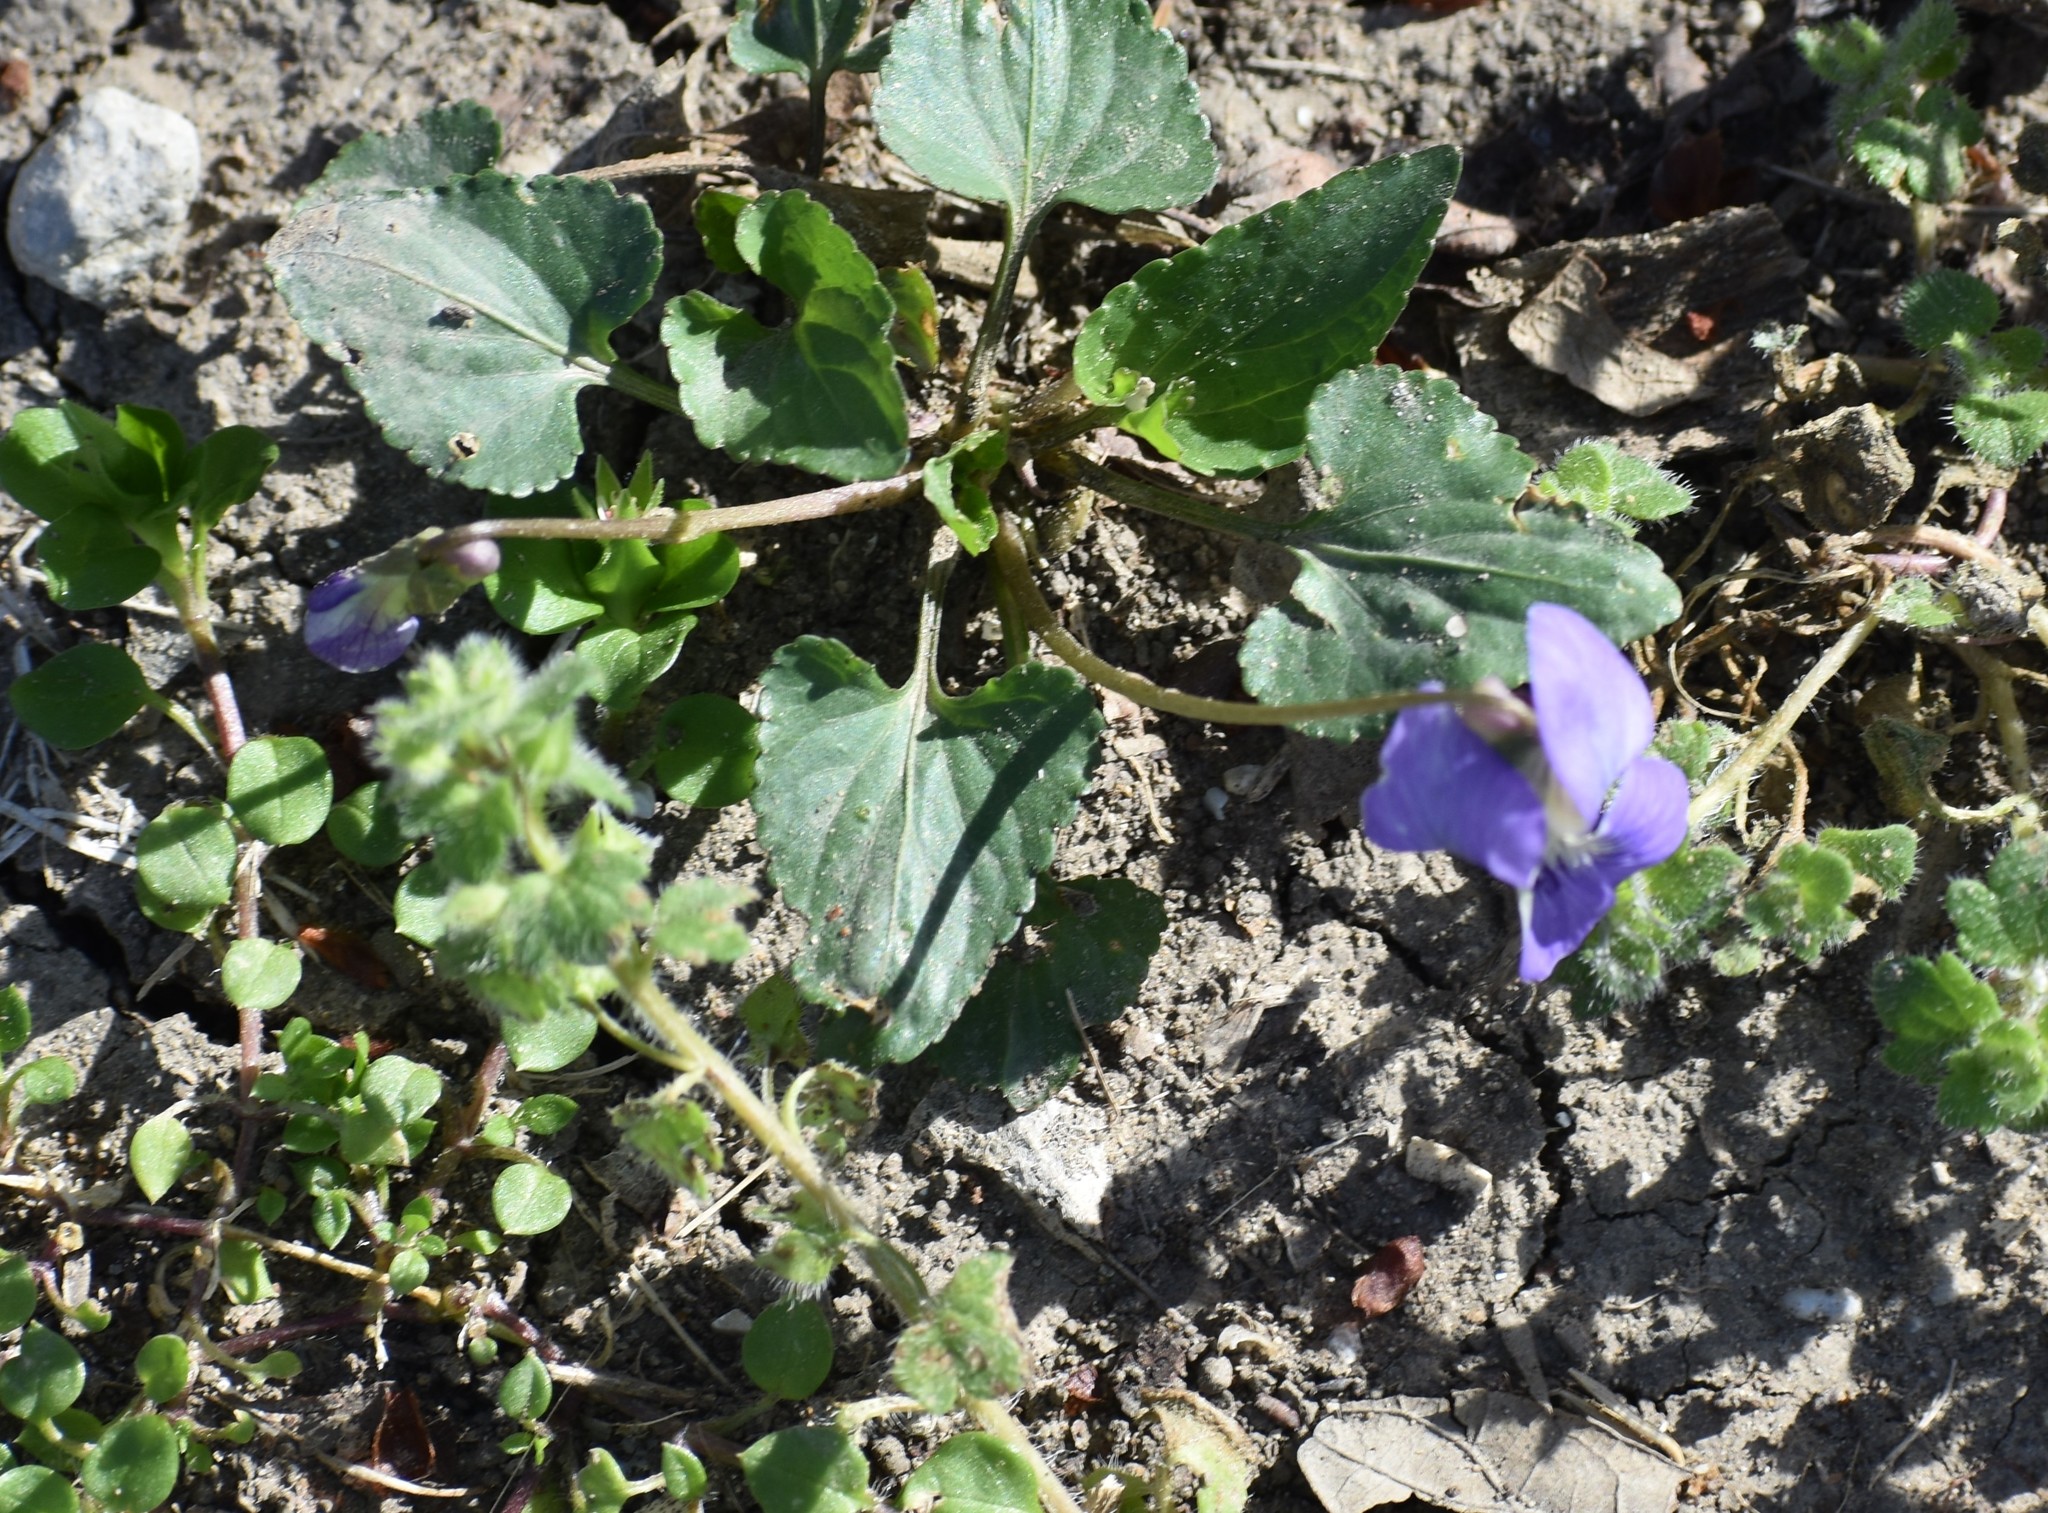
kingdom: Plantae
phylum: Tracheophyta
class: Magnoliopsida
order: Malpighiales
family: Violaceae
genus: Viola
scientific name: Viola missouriensis
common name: Missouri violet
